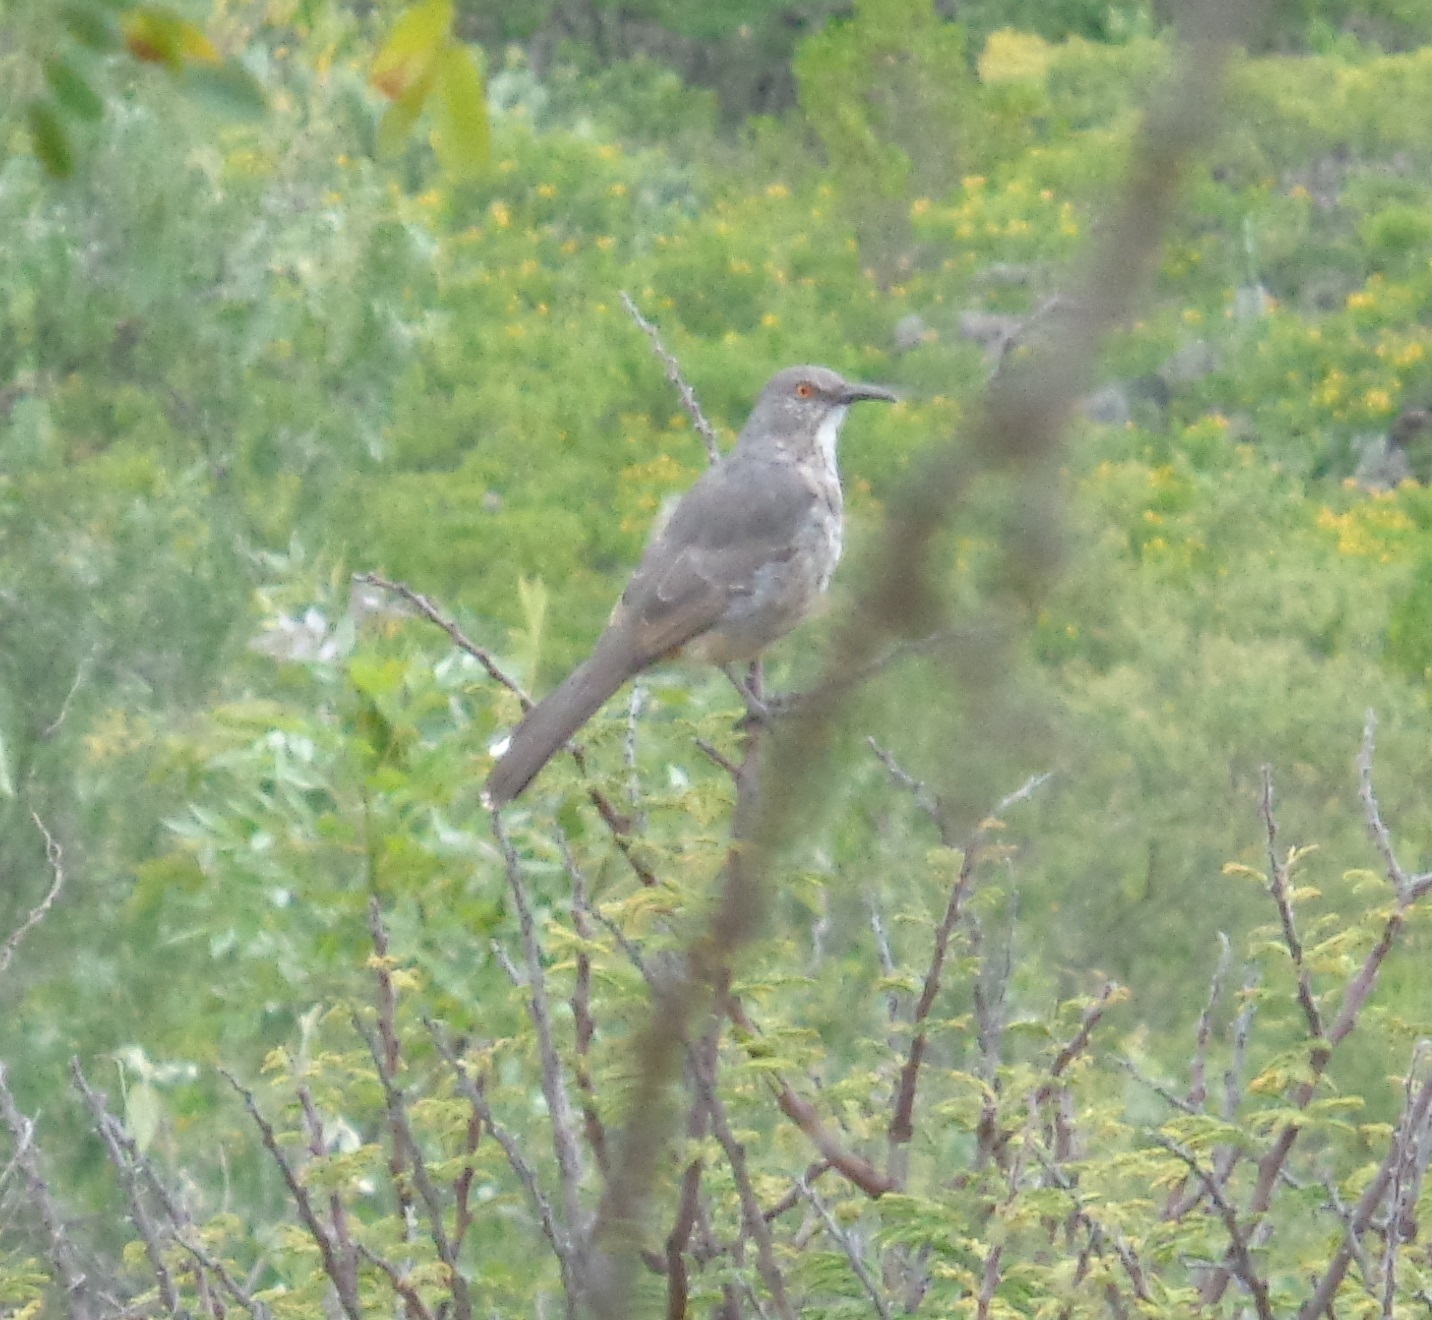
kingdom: Animalia
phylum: Chordata
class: Aves
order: Passeriformes
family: Mimidae
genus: Toxostoma
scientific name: Toxostoma curvirostre
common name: Curve-billed thrasher
